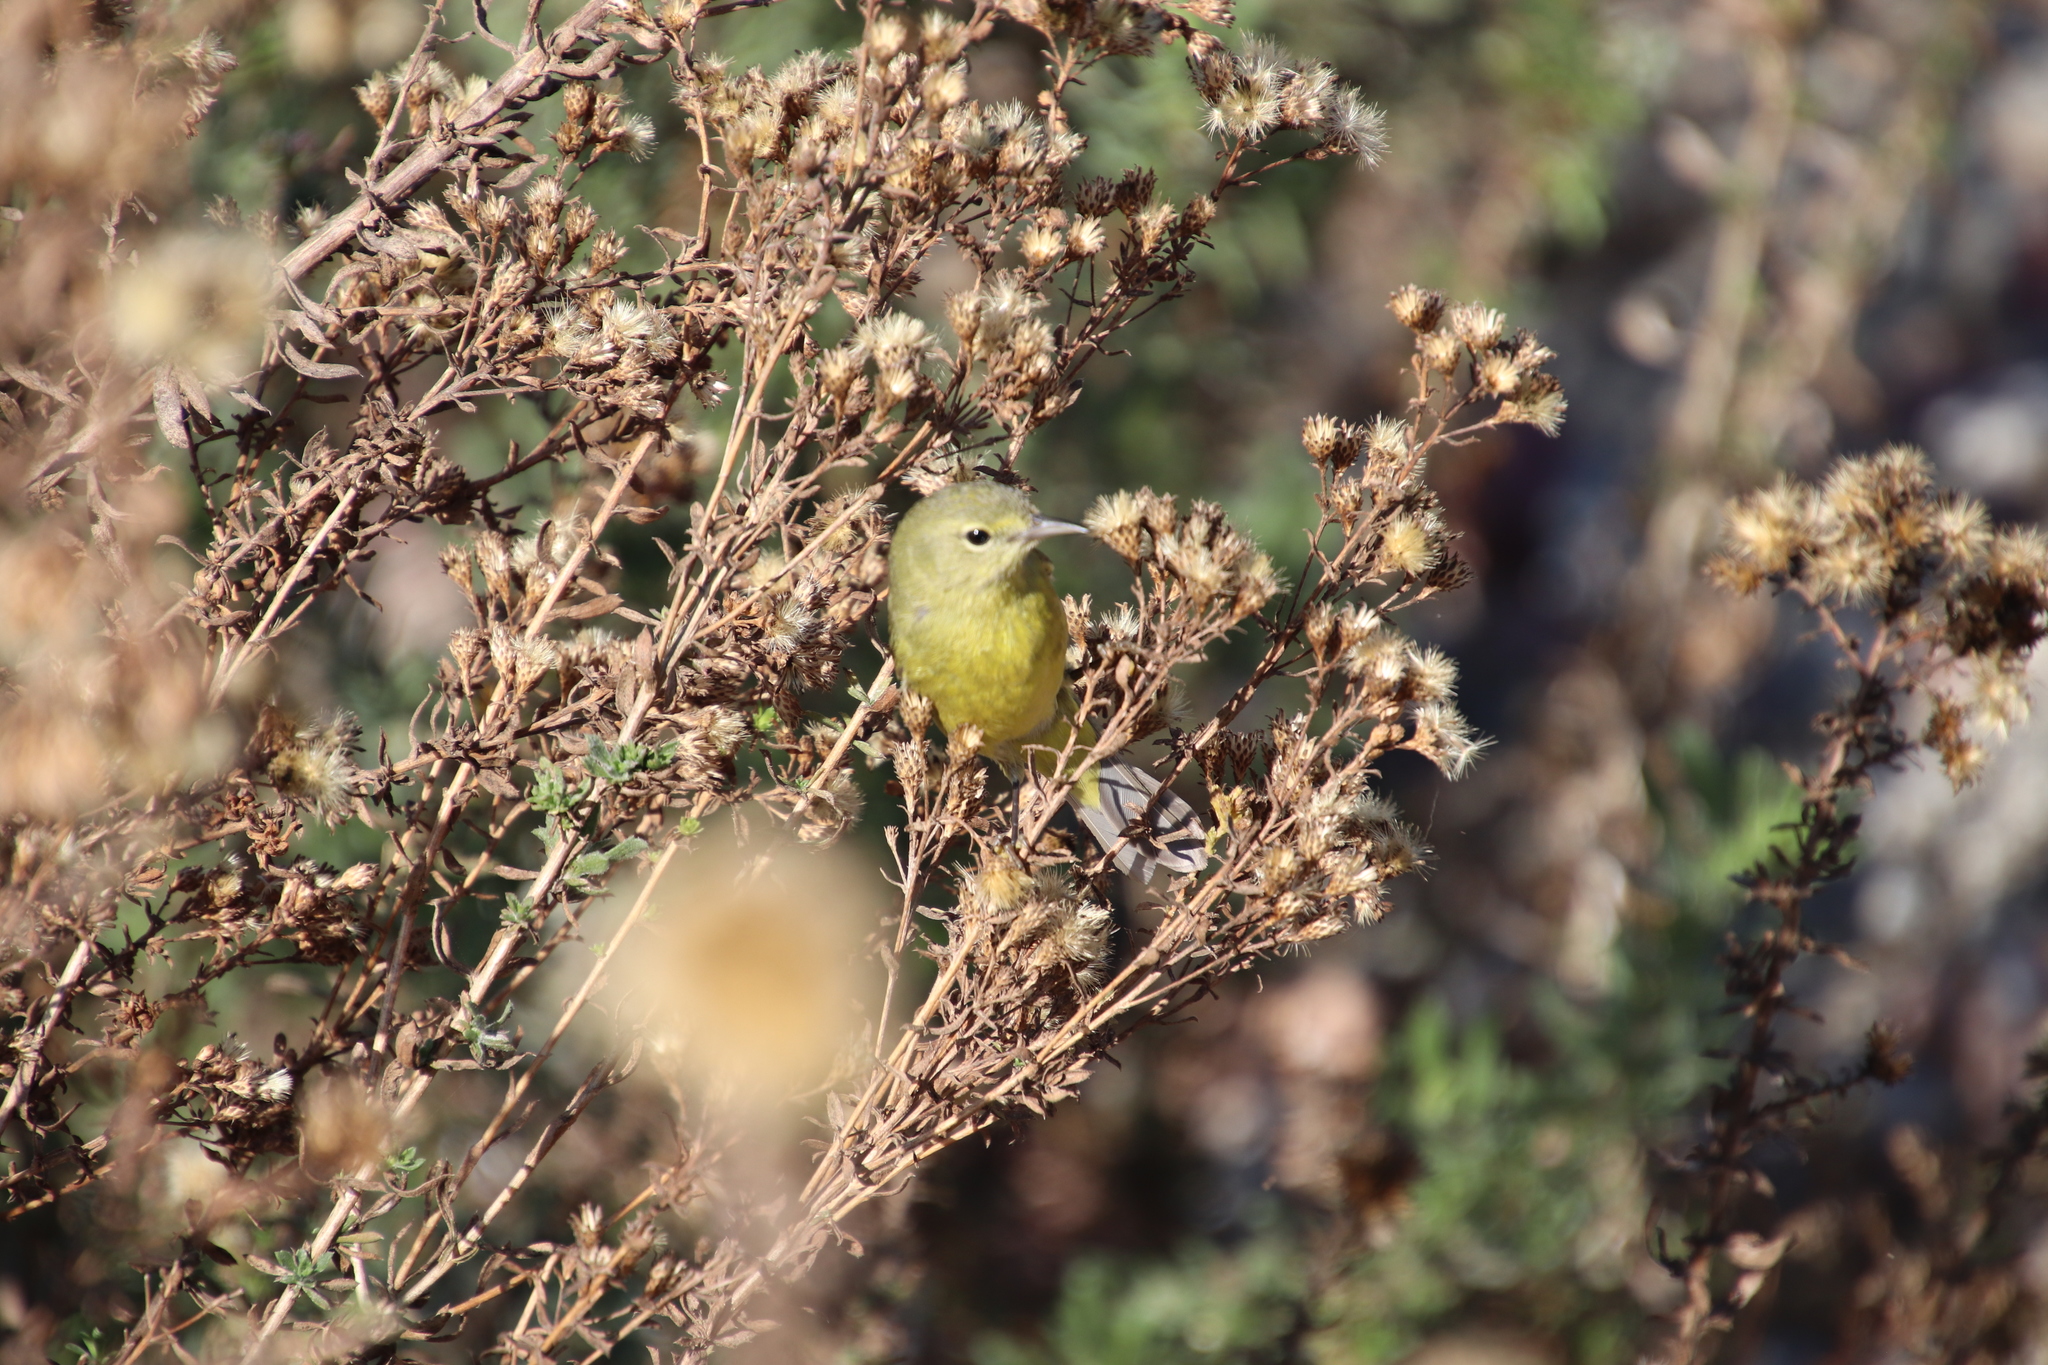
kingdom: Animalia
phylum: Chordata
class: Aves
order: Passeriformes
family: Parulidae
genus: Leiothlypis
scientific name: Leiothlypis celata
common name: Orange-crowned warbler
